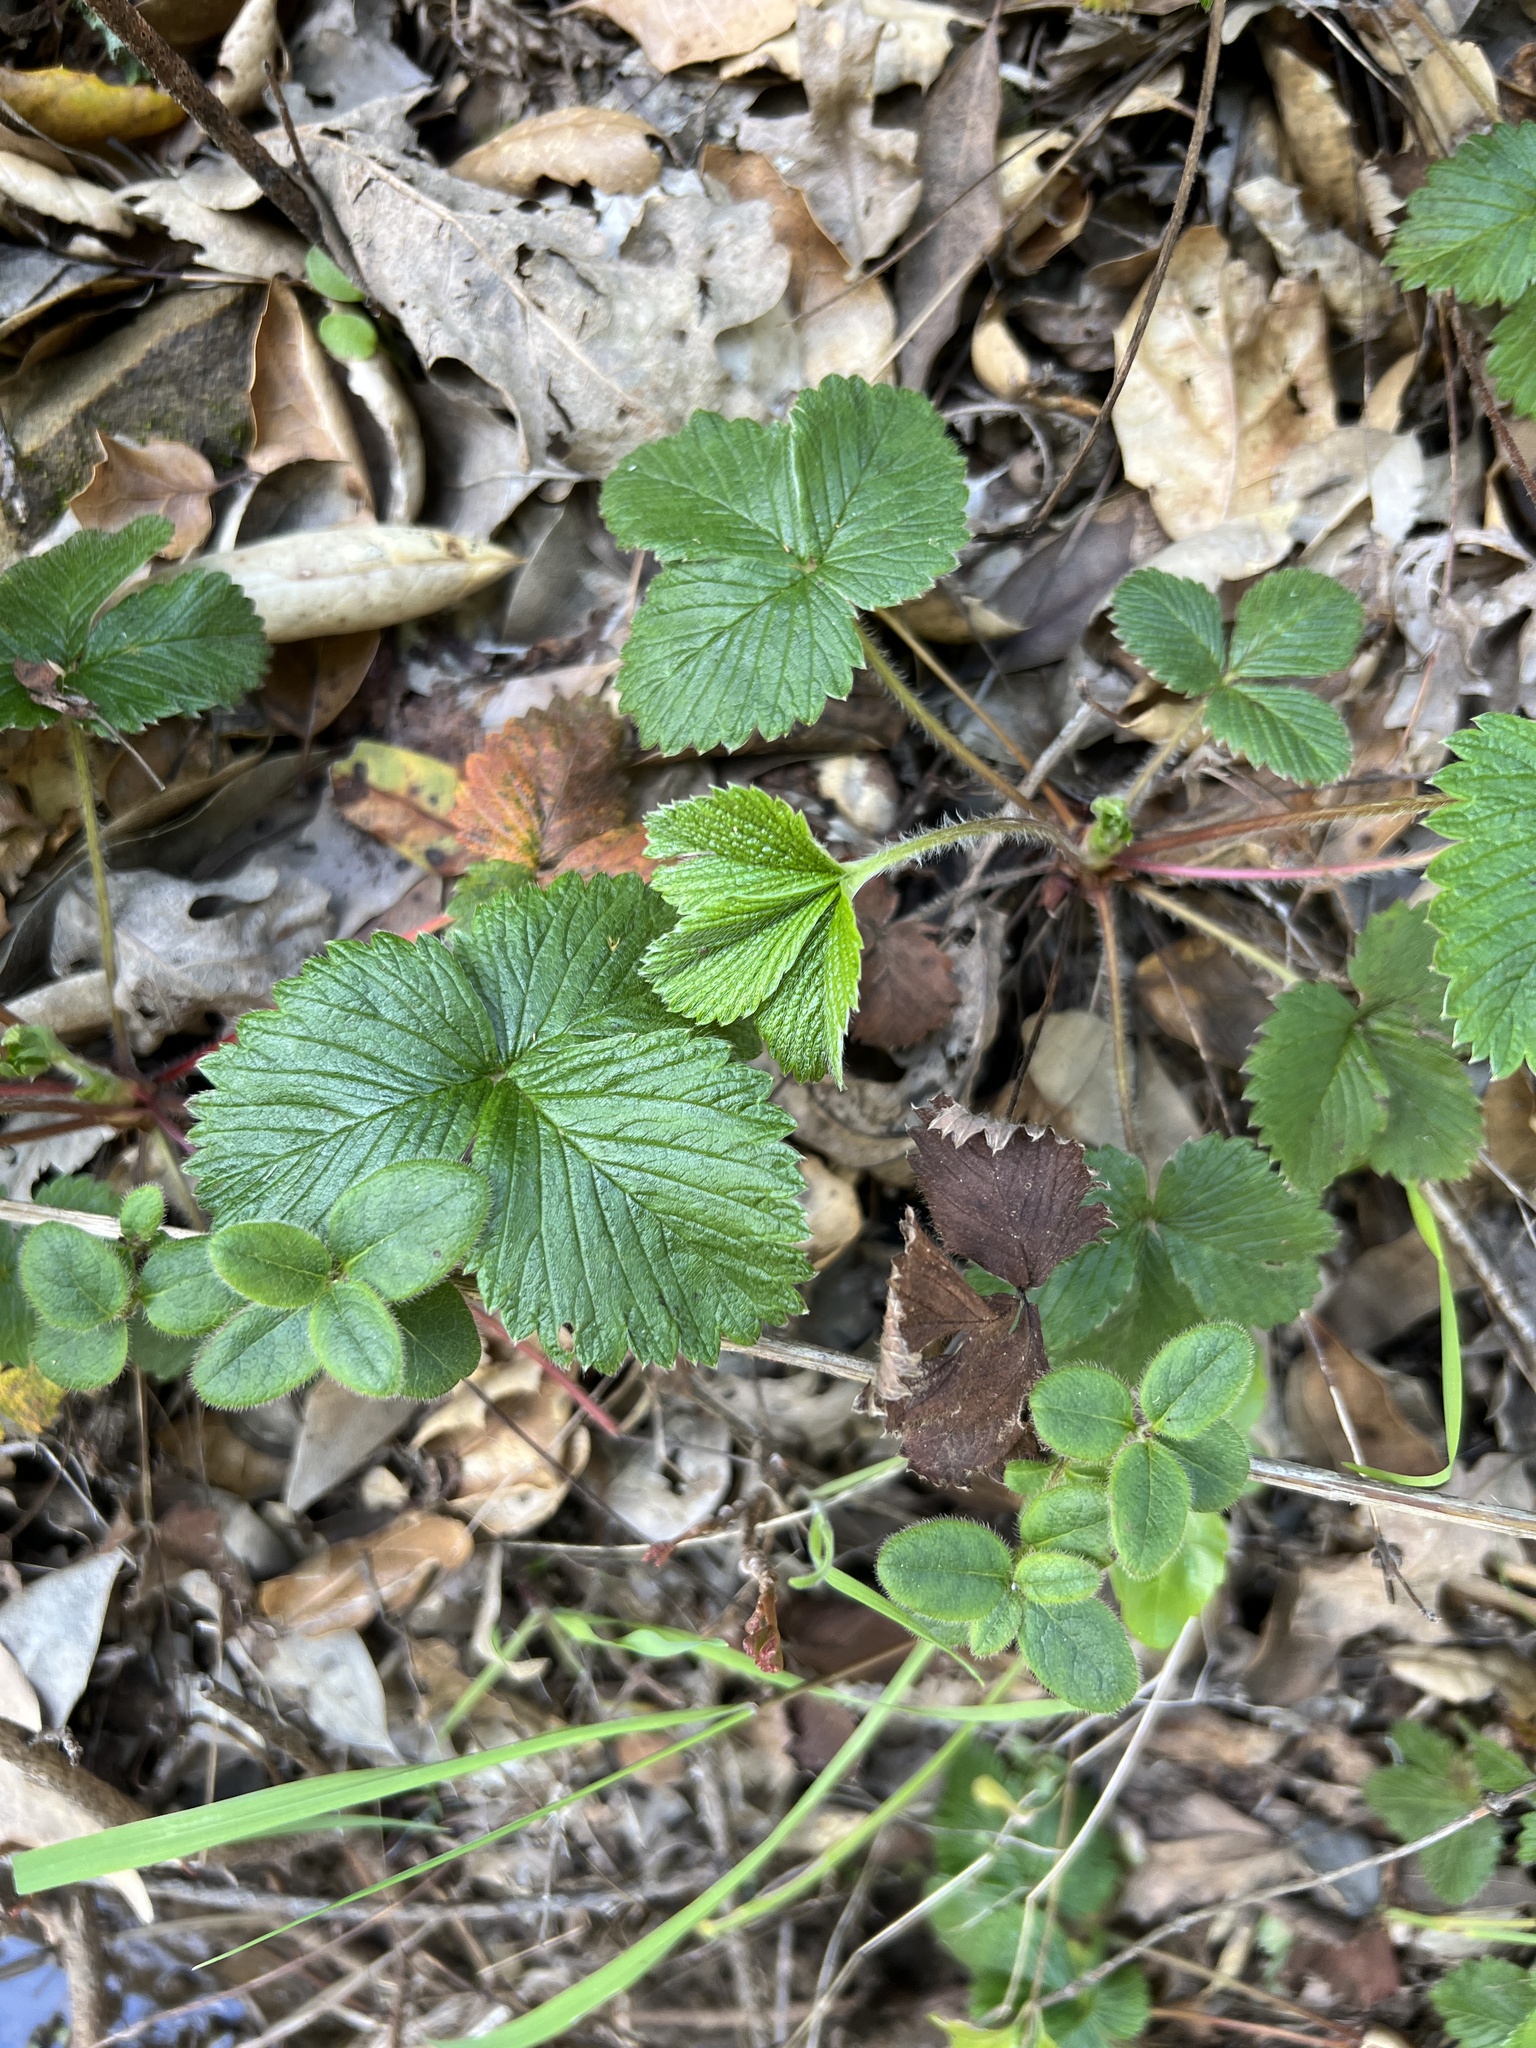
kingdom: Plantae
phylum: Tracheophyta
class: Magnoliopsida
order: Rosales
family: Rosaceae
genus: Fragaria
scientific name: Fragaria vesca
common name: Wild strawberry
